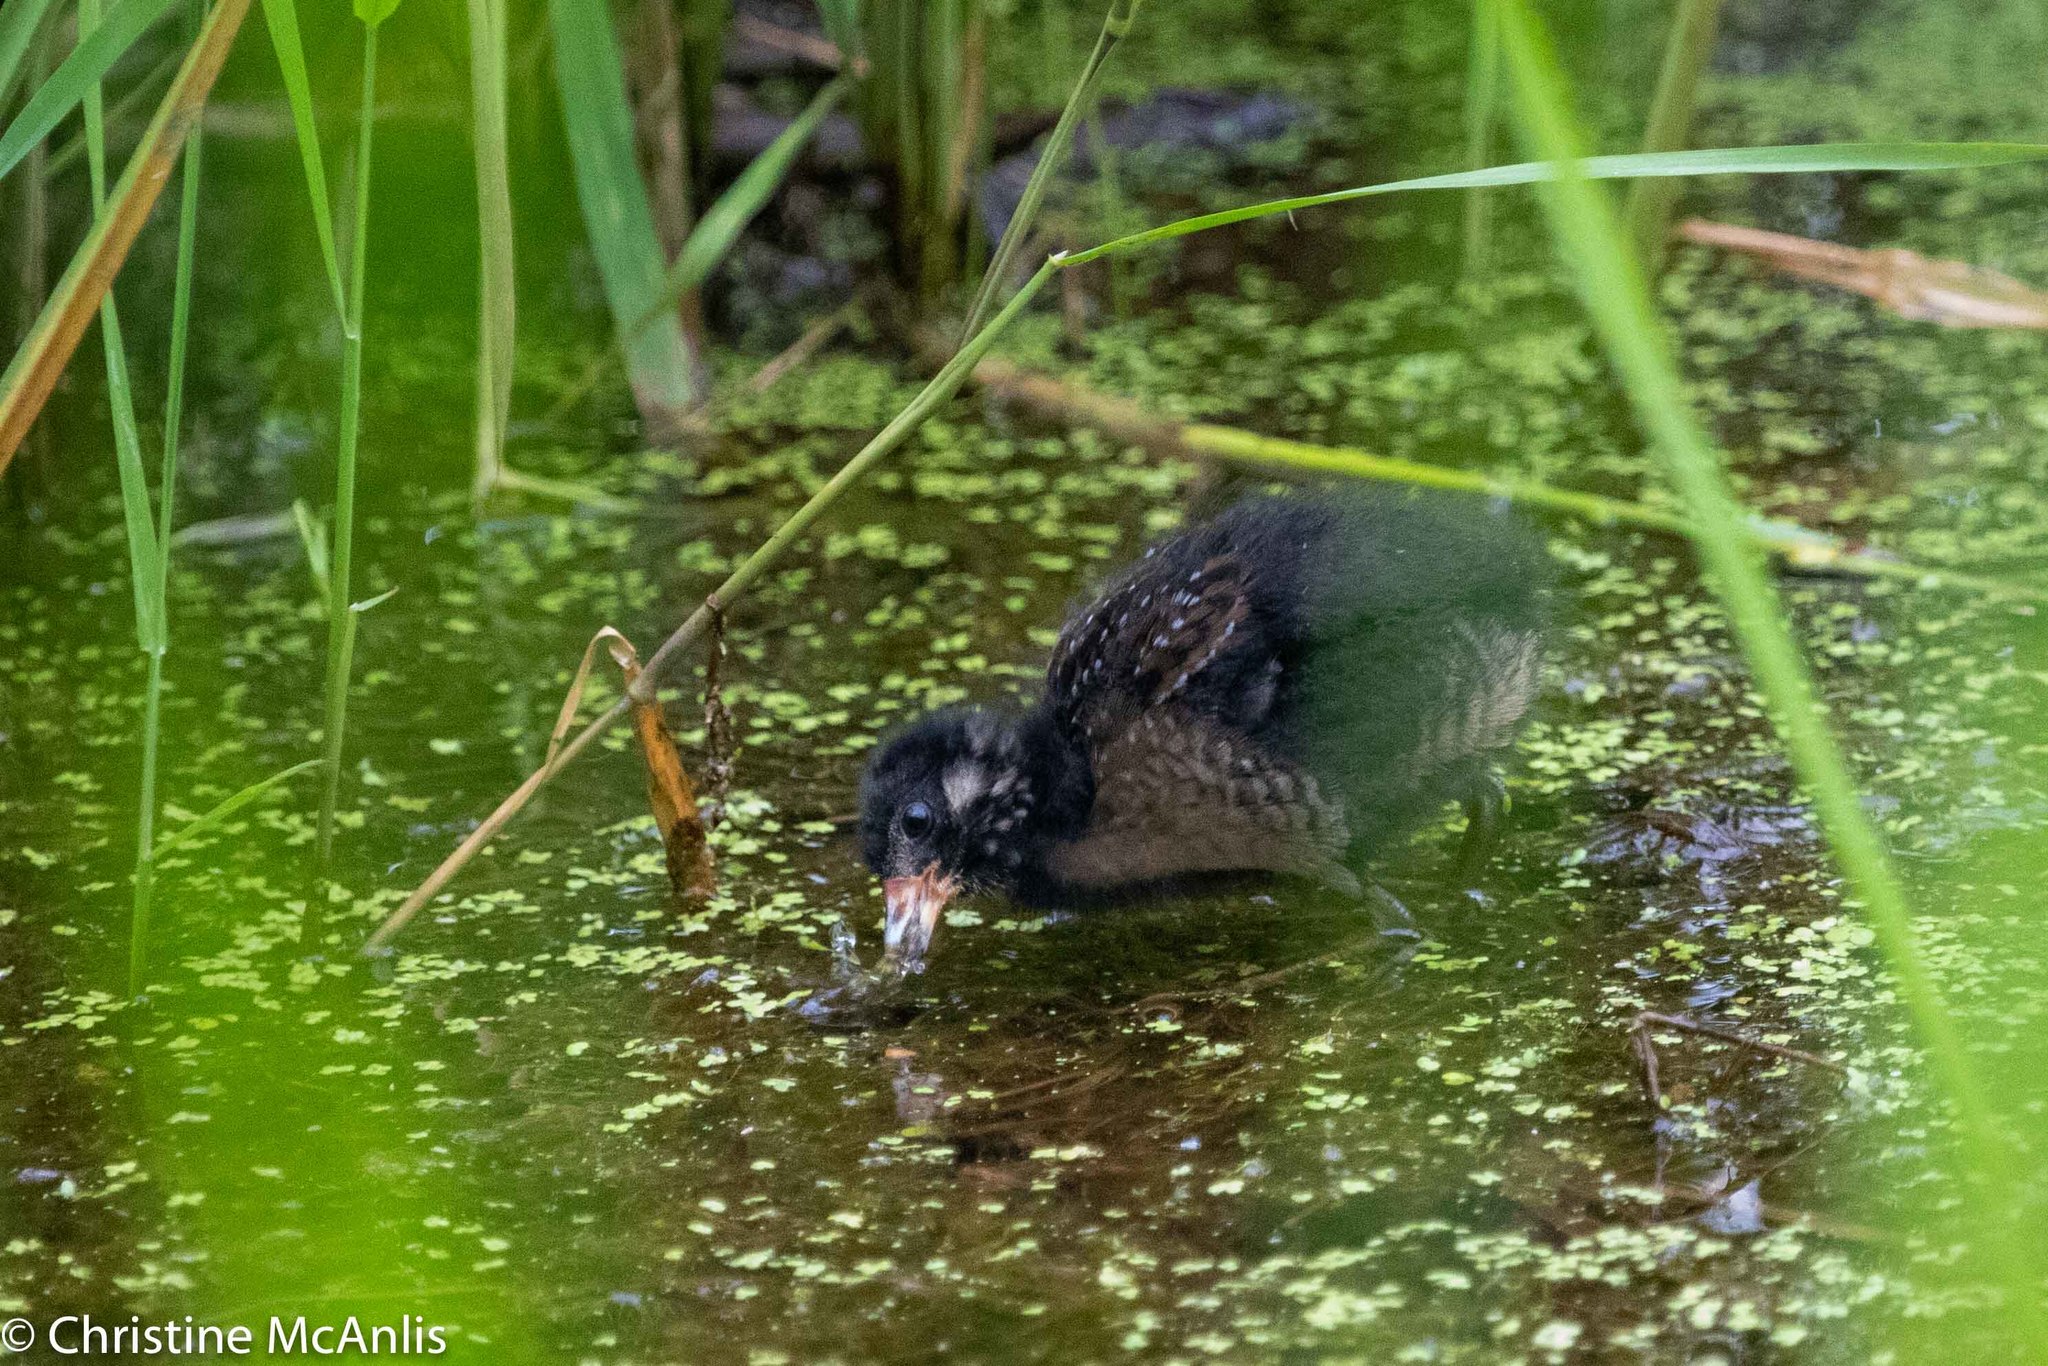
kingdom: Animalia
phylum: Chordata
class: Aves
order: Gruiformes
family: Rallidae
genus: Porzana
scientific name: Porzana carolina
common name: Sora
